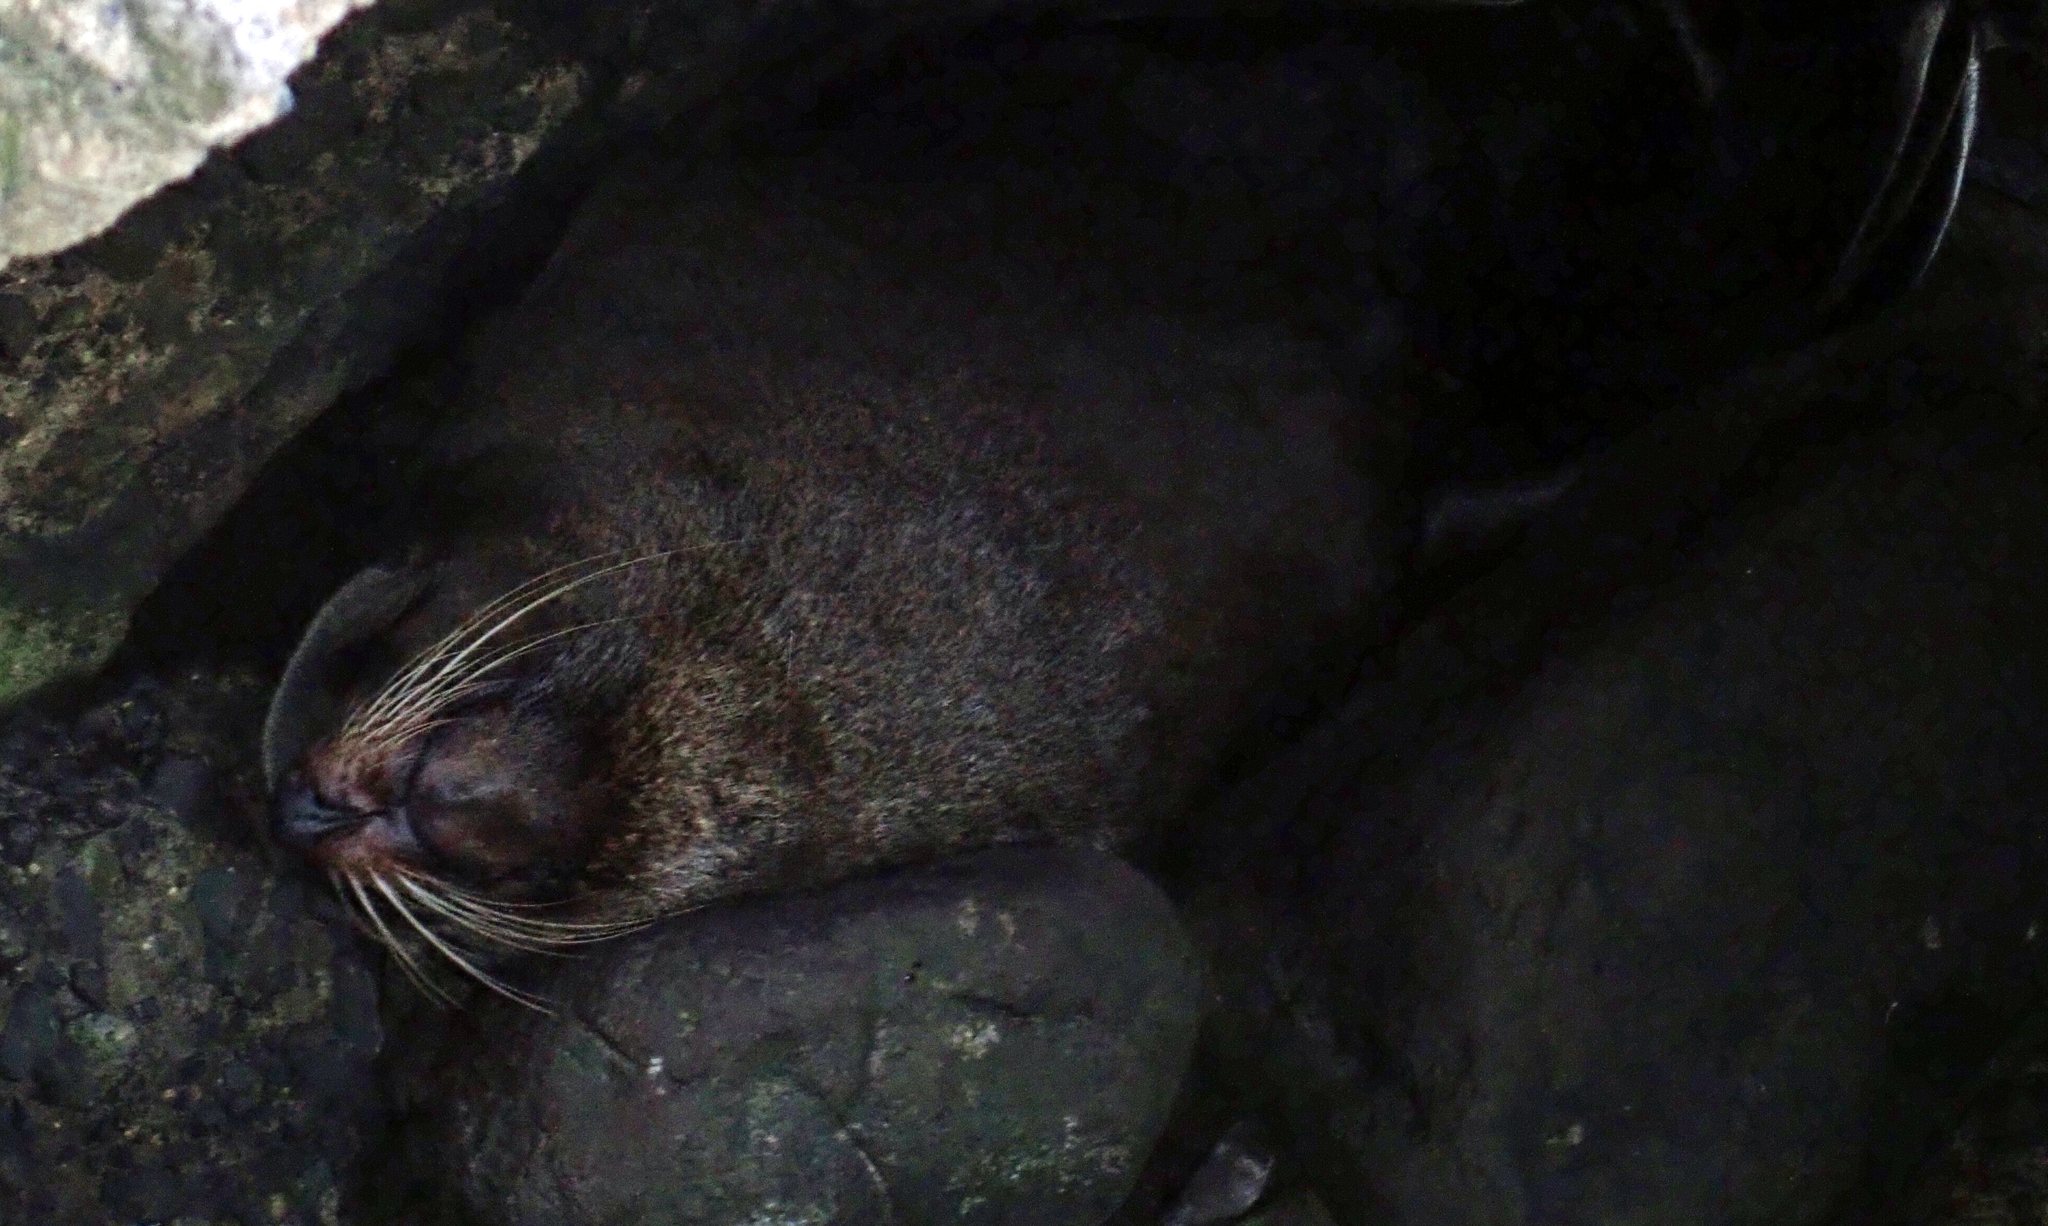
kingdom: Animalia
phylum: Chordata
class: Mammalia
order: Carnivora
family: Otariidae
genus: Arctocephalus
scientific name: Arctocephalus forsteri
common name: New zealand fur seal
